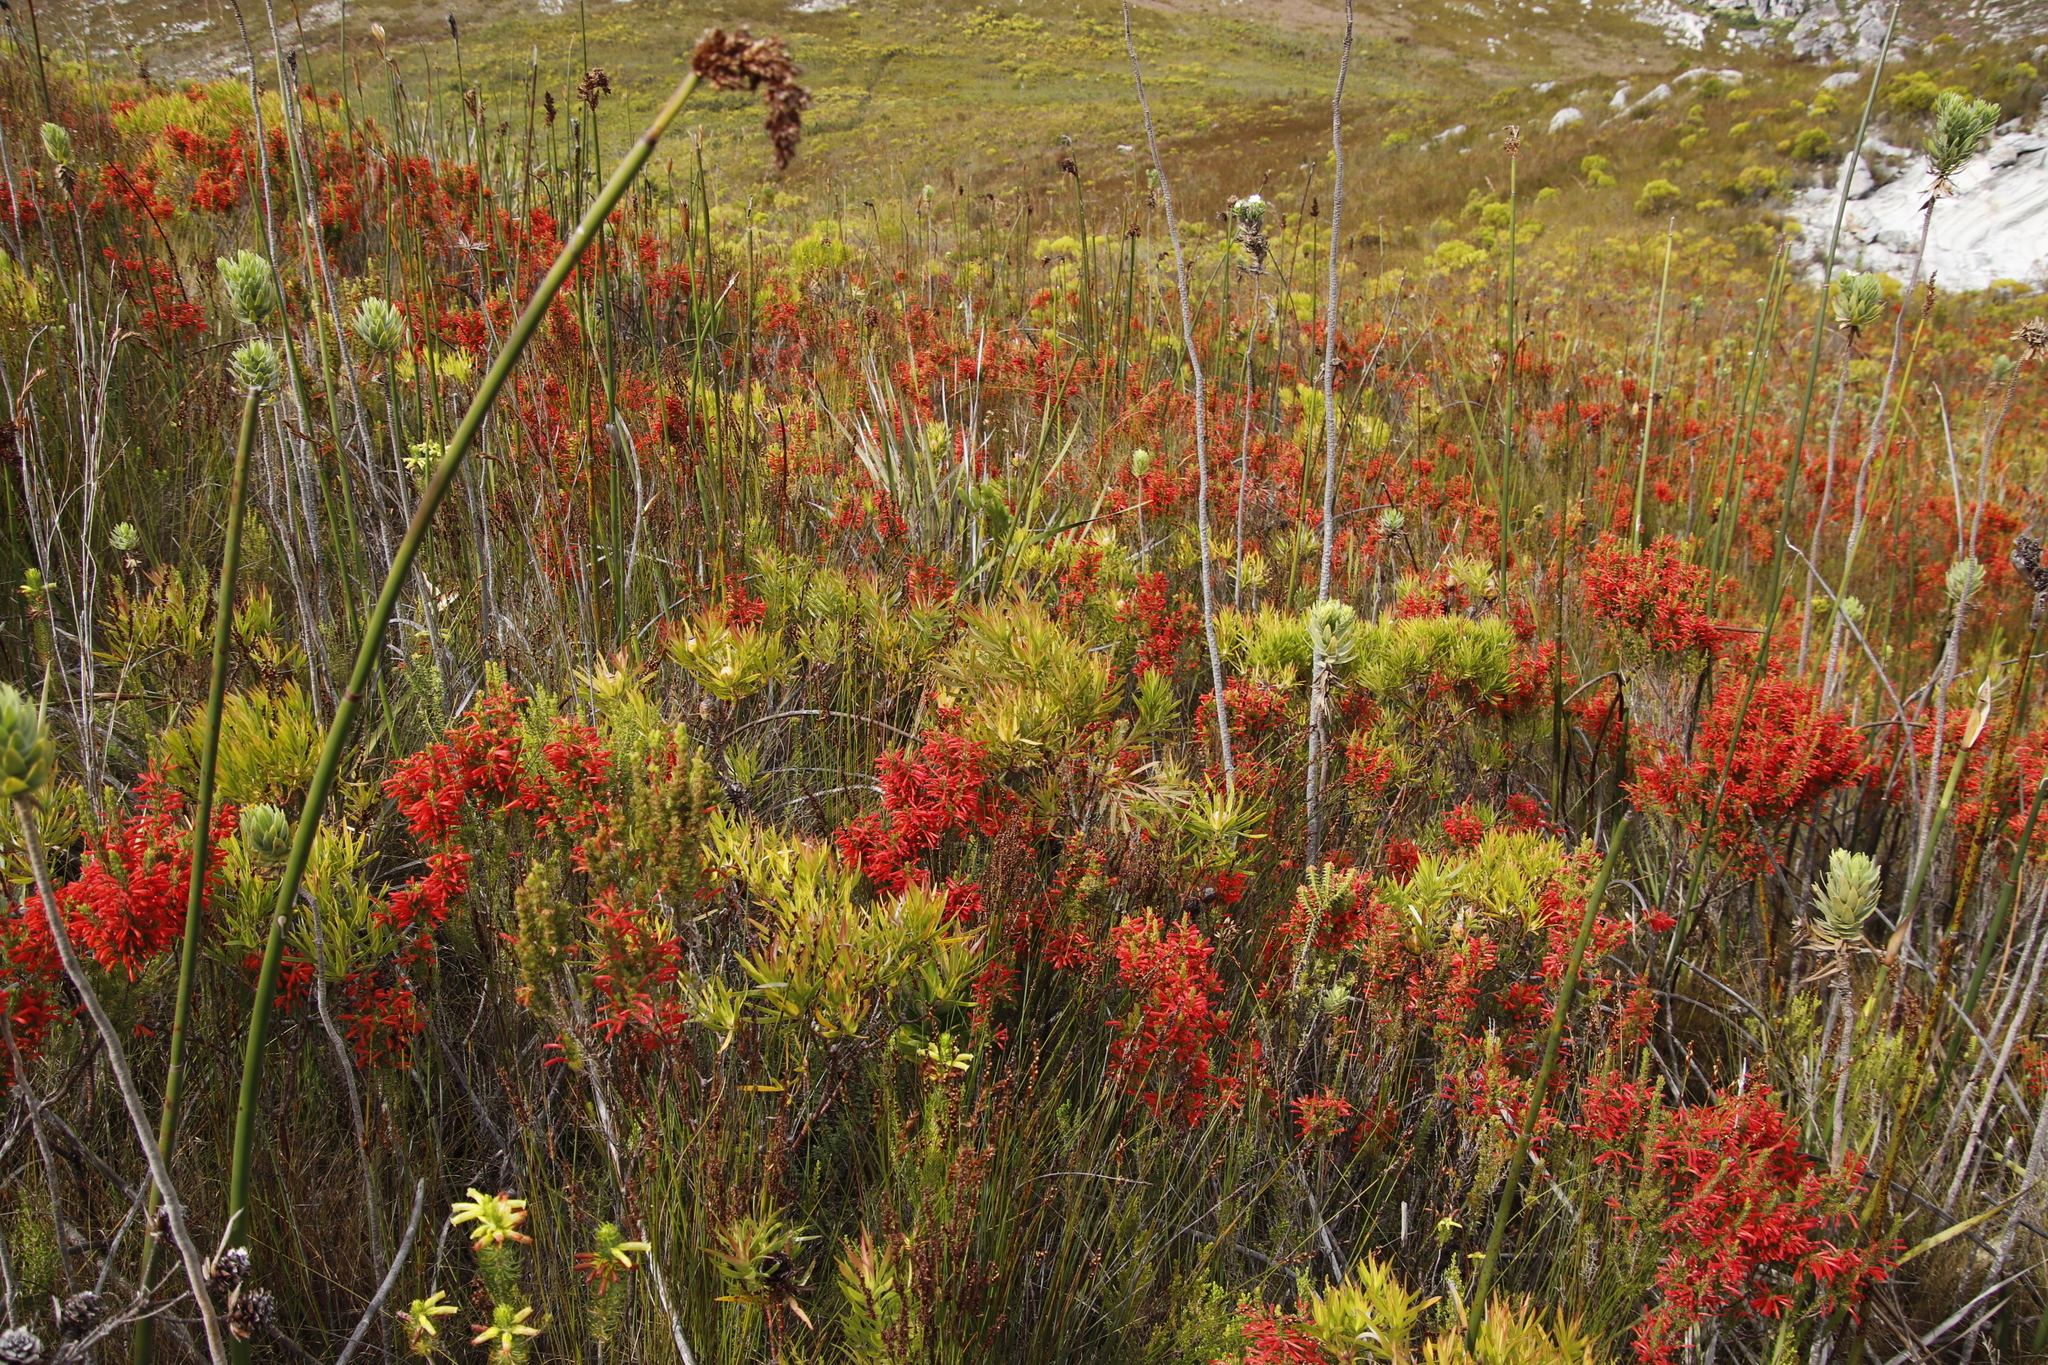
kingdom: Plantae
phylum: Tracheophyta
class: Liliopsida
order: Poales
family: Restionaceae
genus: Elegia
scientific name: Elegia mucronata
